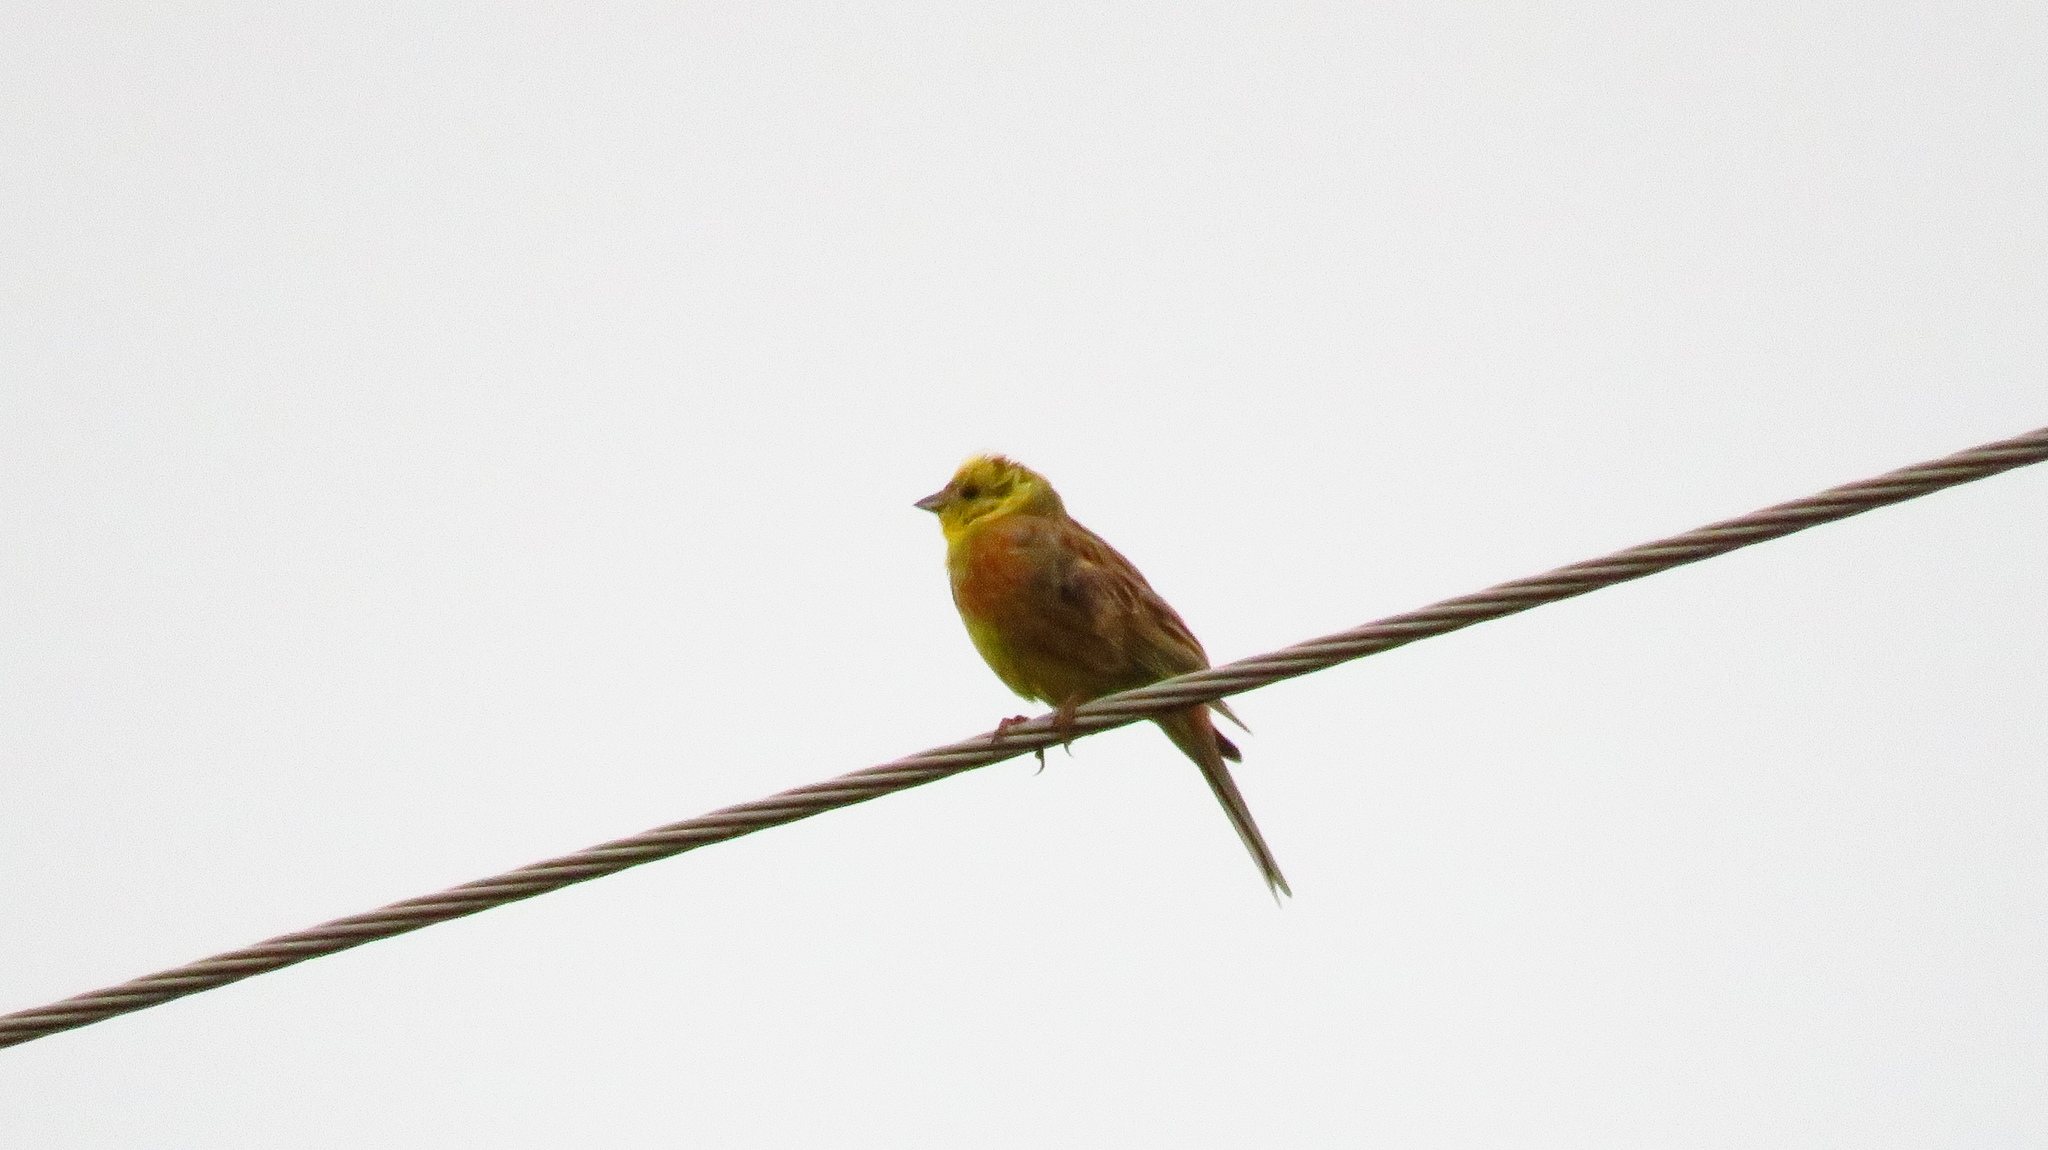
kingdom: Animalia
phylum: Chordata
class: Aves
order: Passeriformes
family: Emberizidae
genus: Emberiza
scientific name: Emberiza citrinella
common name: Yellowhammer
